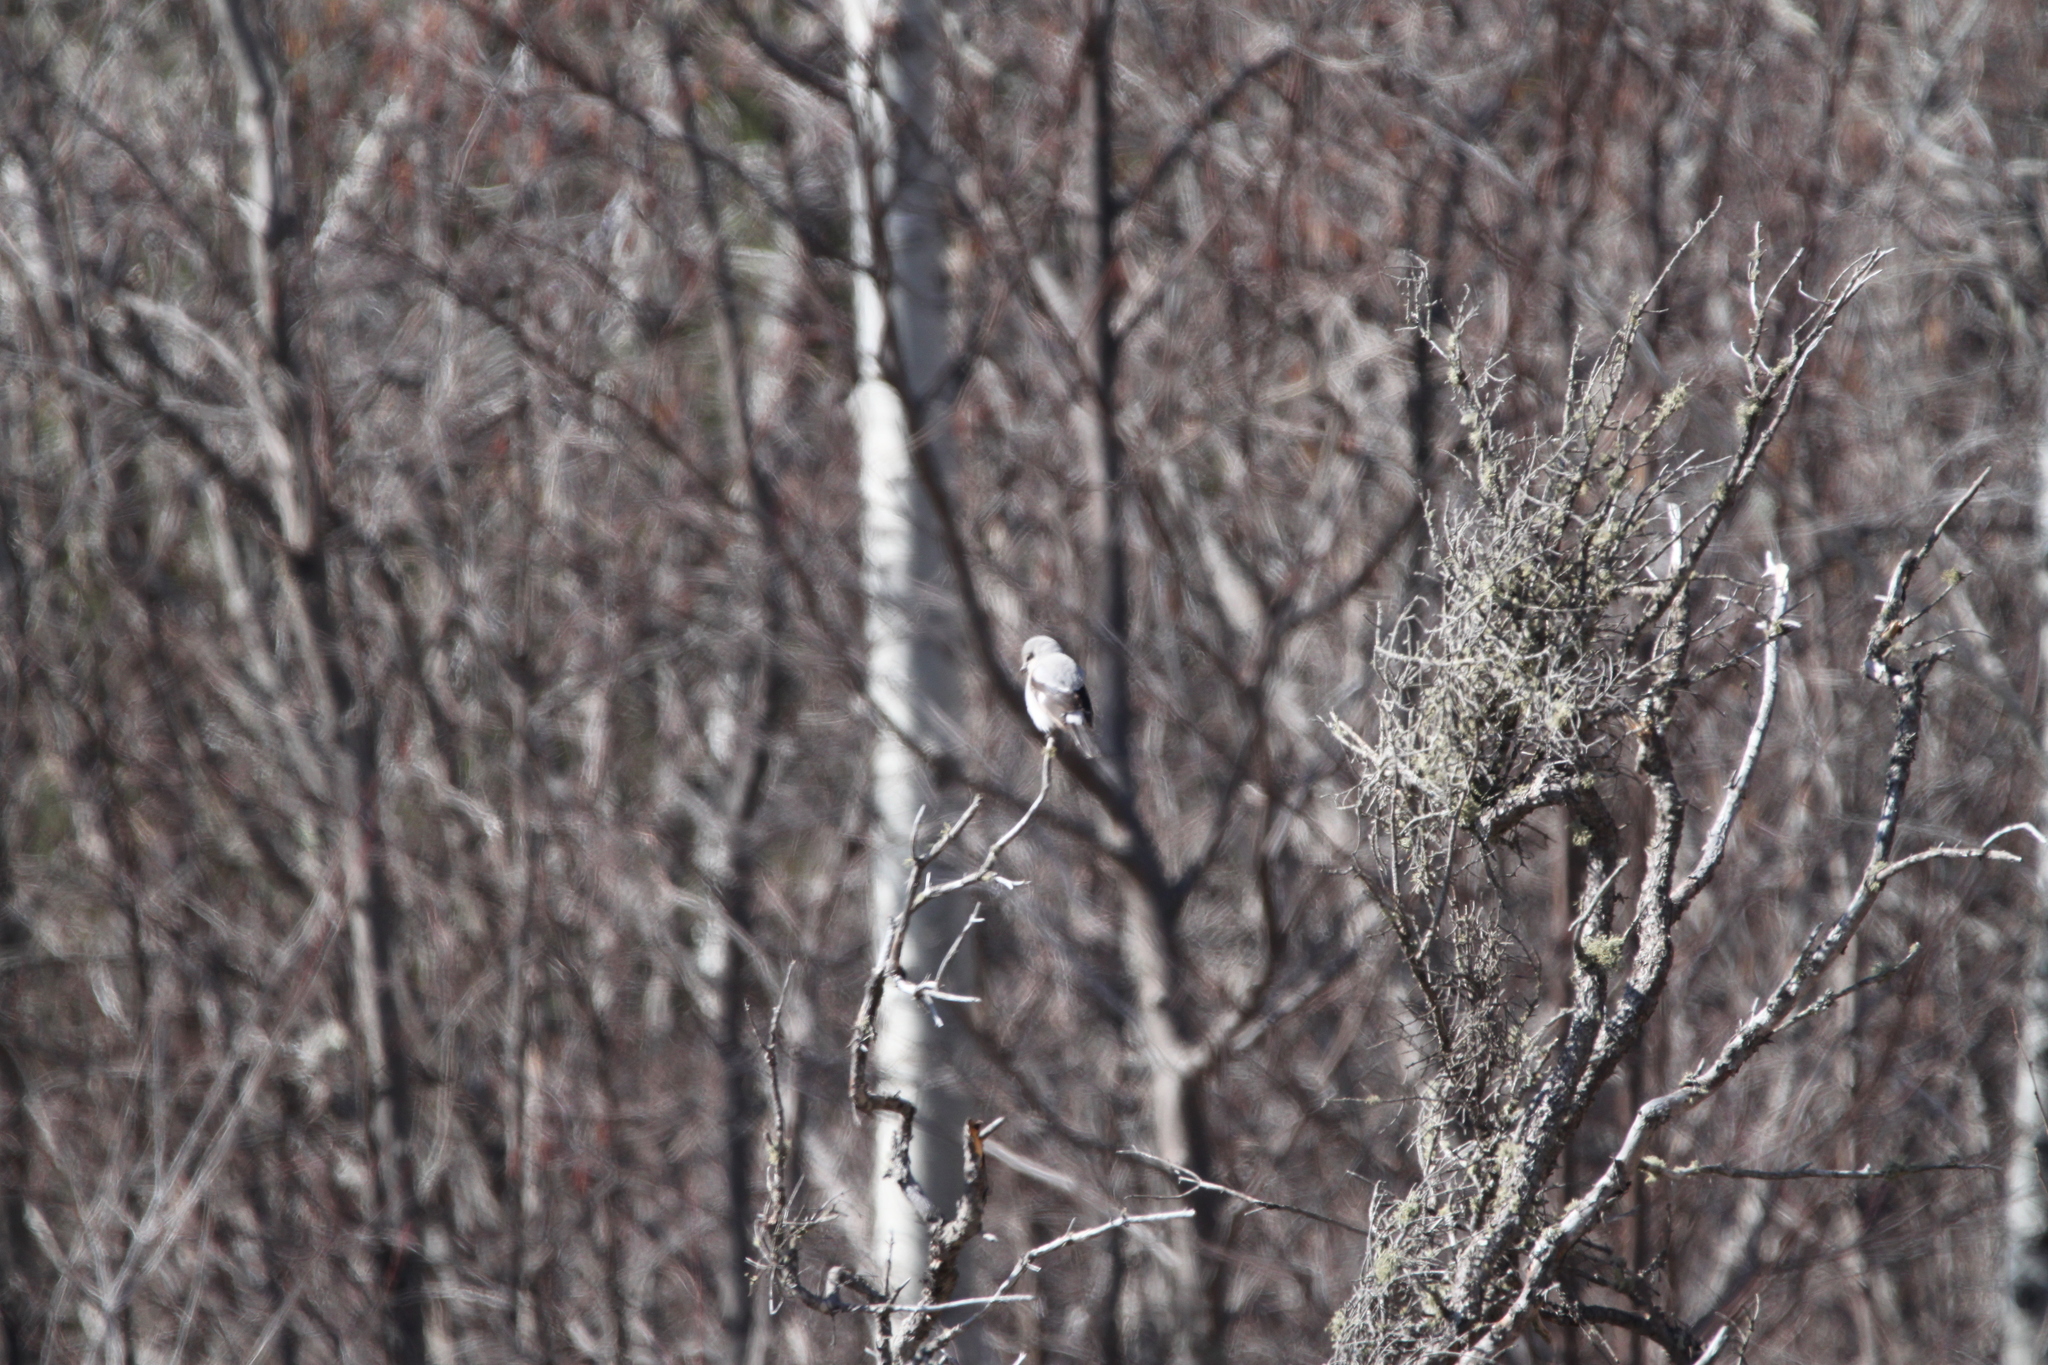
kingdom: Animalia
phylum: Chordata
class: Aves
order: Passeriformes
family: Laniidae
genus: Lanius
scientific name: Lanius borealis
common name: Northern shrike
